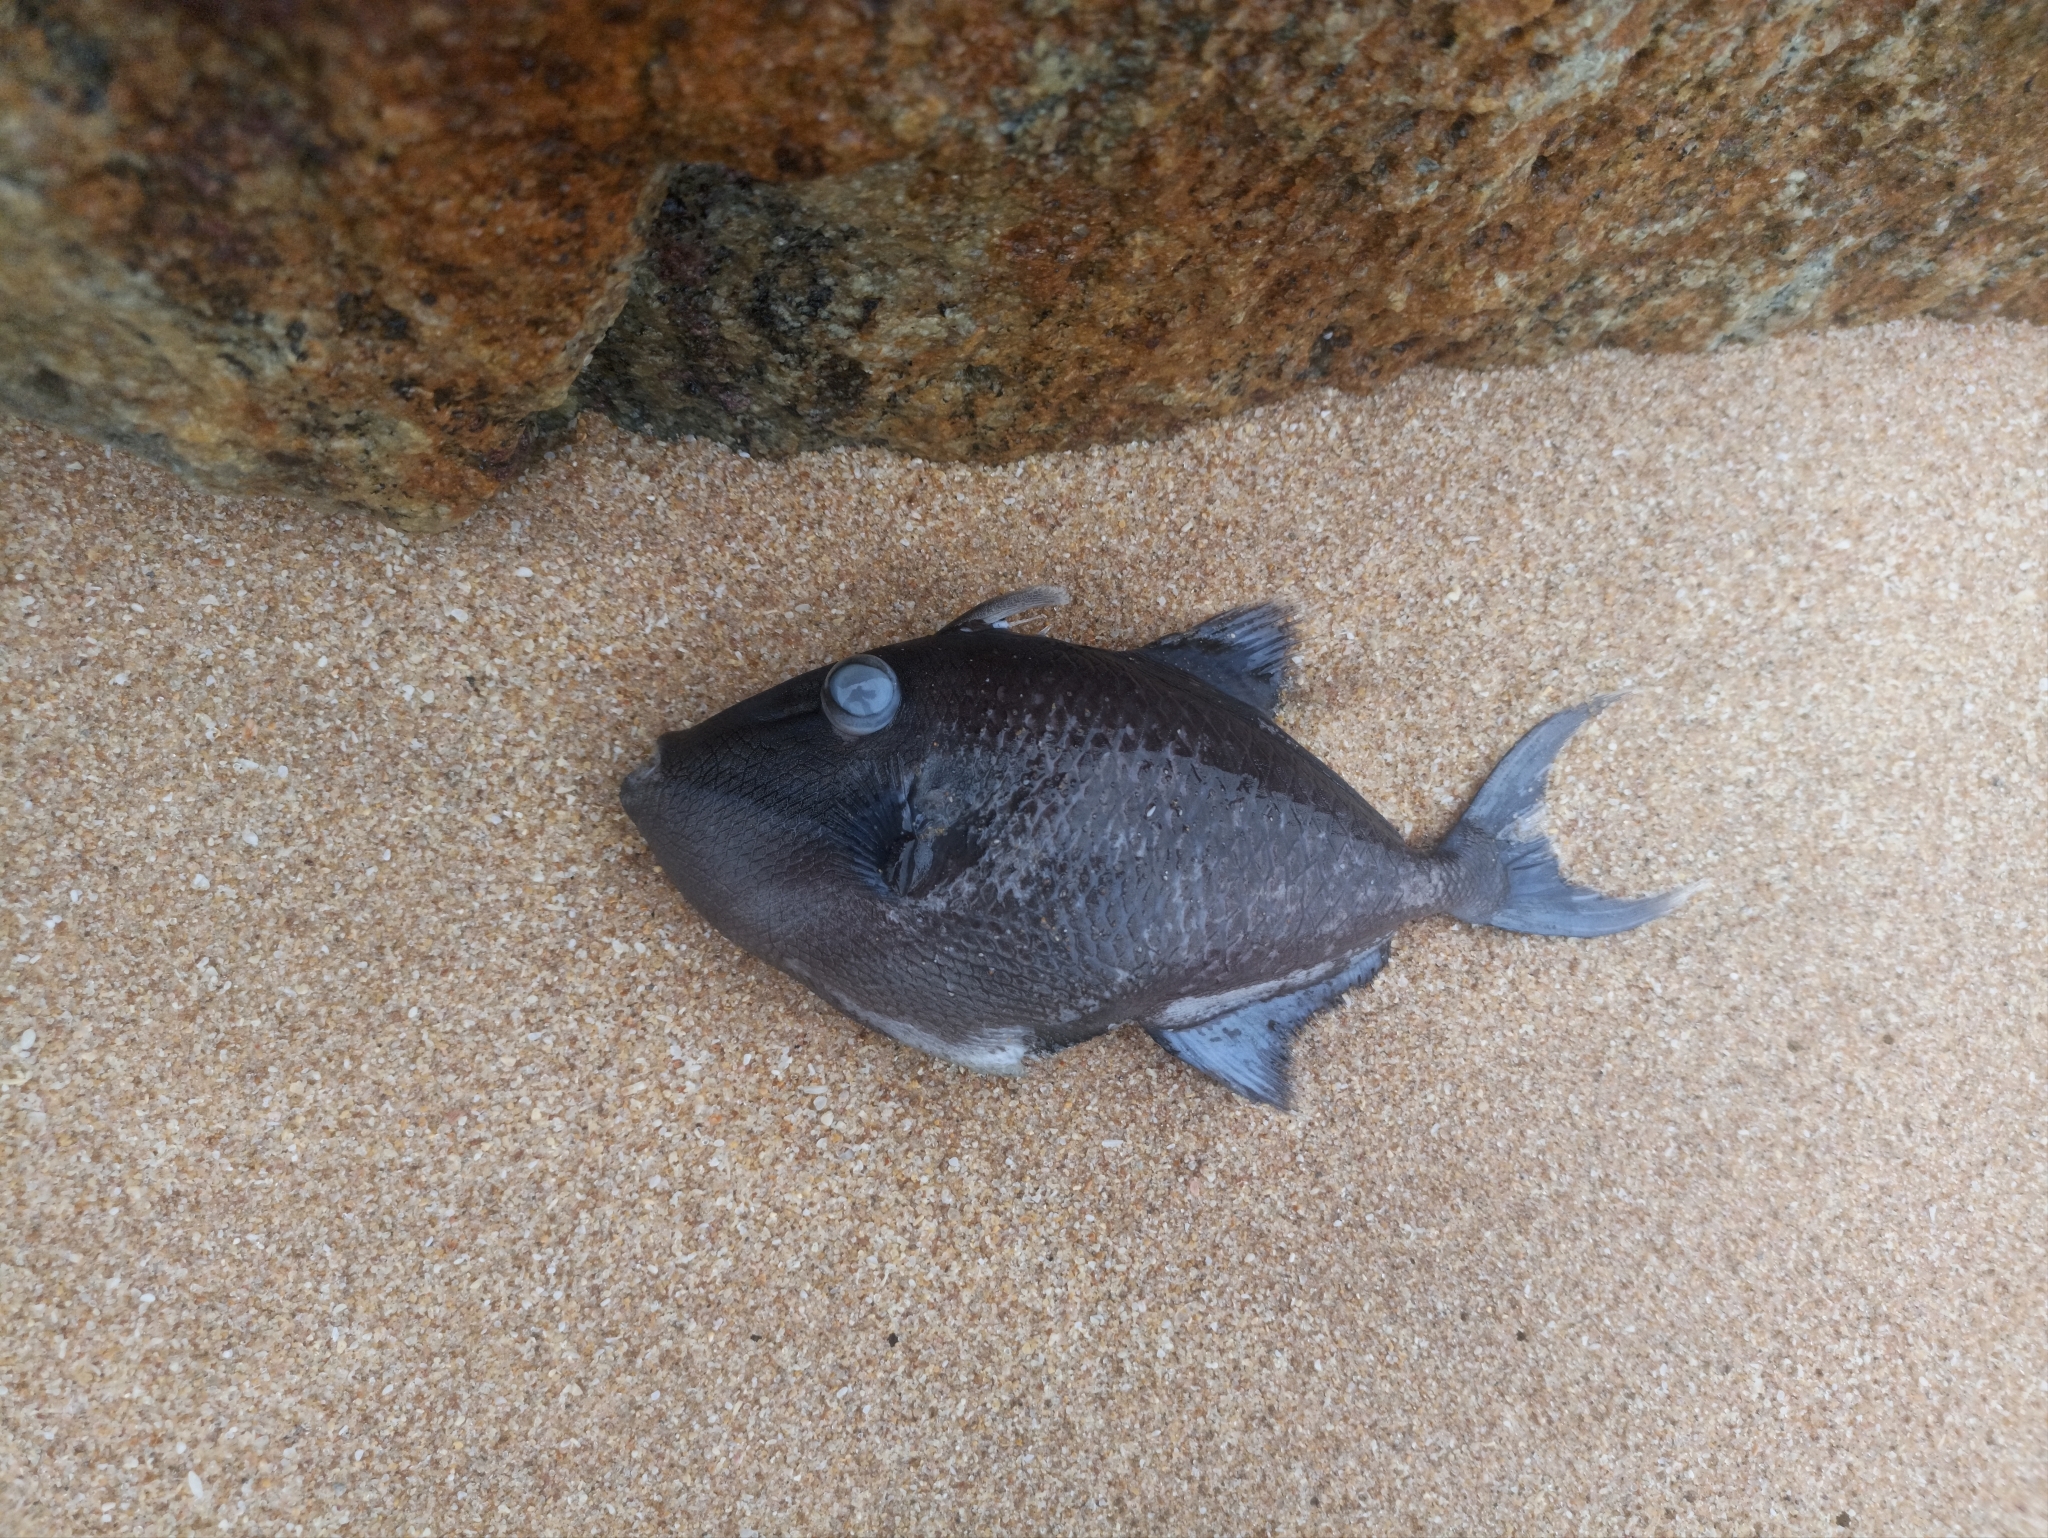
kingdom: Animalia
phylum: Chordata
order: Tetraodontiformes
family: Balistidae
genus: Odonus
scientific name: Odonus niger
